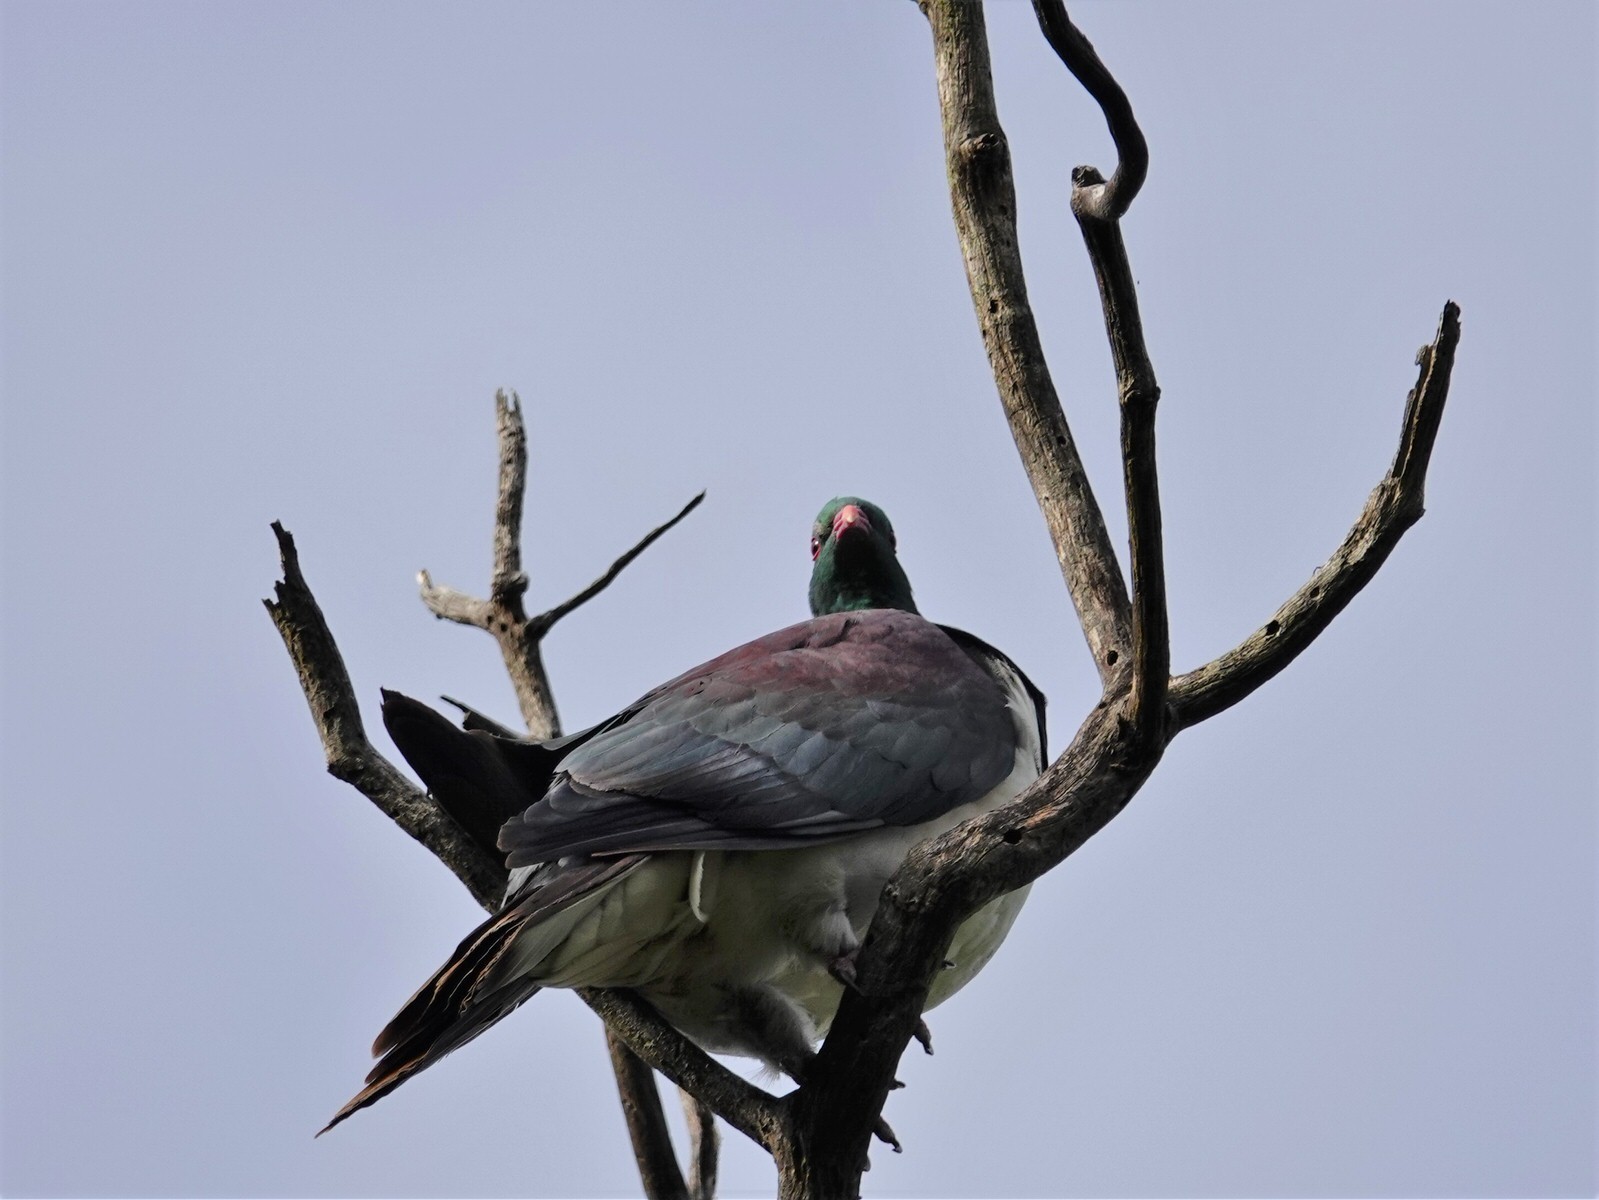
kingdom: Animalia
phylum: Chordata
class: Aves
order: Columbiformes
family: Columbidae
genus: Hemiphaga
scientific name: Hemiphaga novaeseelandiae
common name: New zealand pigeon
